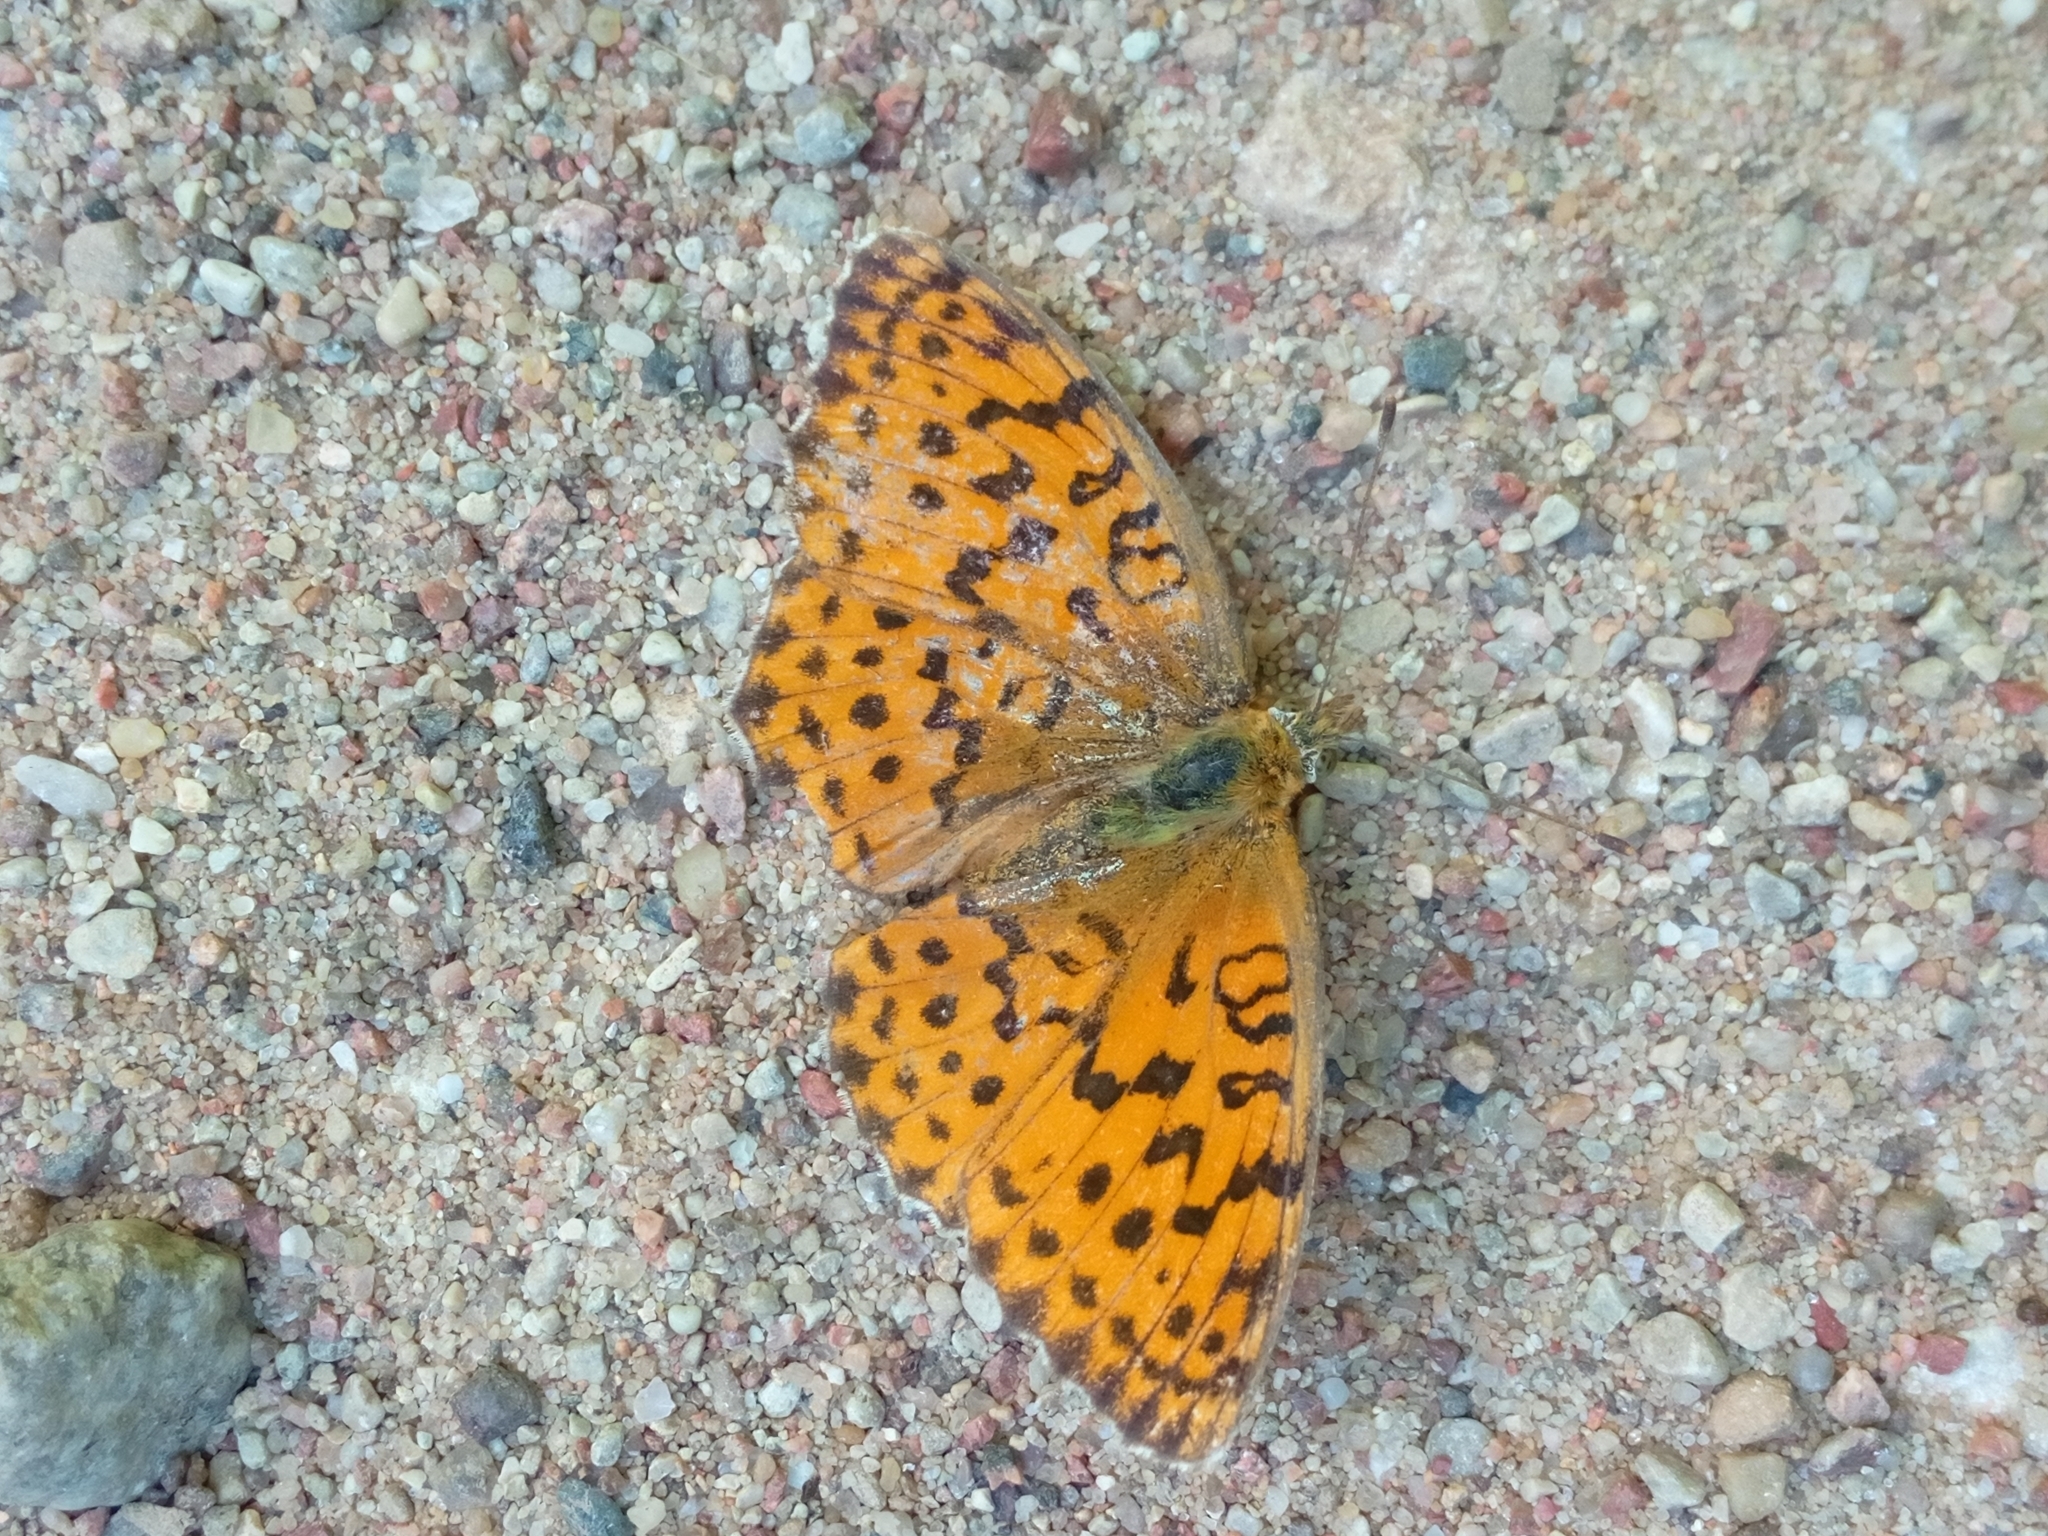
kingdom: Animalia
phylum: Arthropoda
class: Insecta
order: Lepidoptera
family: Nymphalidae
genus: Brenthis
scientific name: Brenthis daphne
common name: Marbled fritillary
